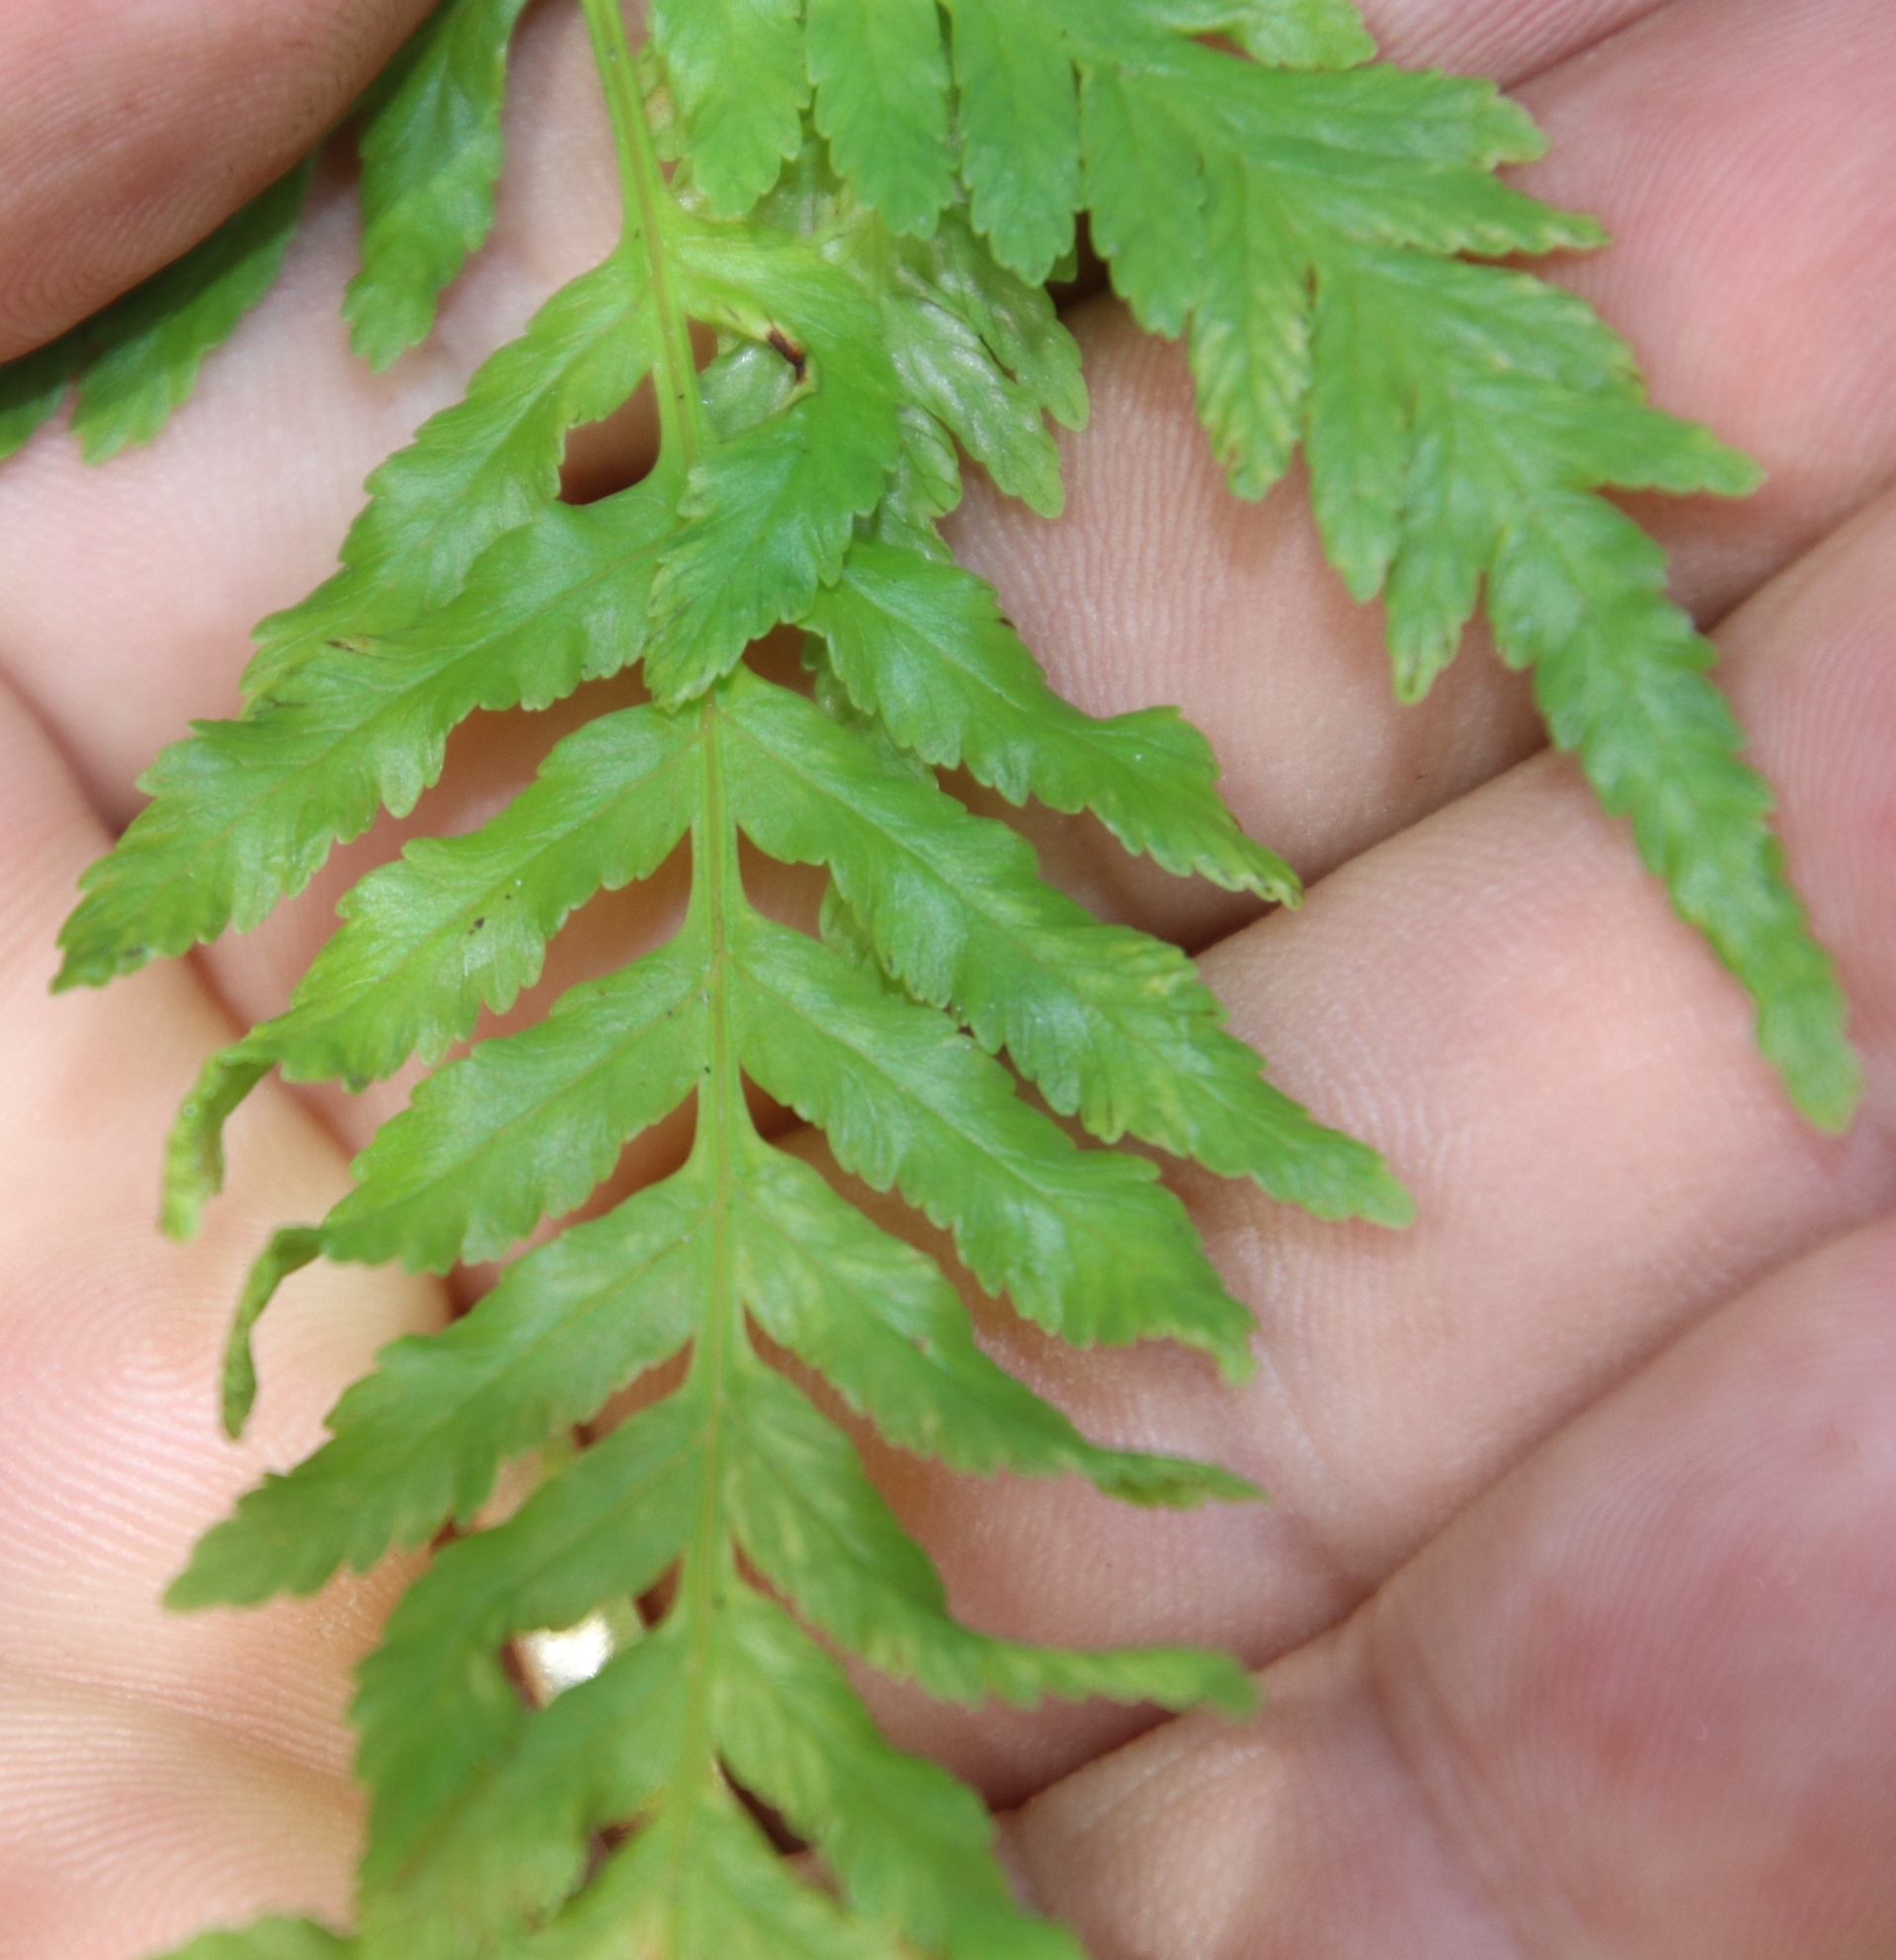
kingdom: Plantae
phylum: Tracheophyta
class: Polypodiopsida
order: Polypodiales
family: Pteridaceae
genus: Pteris
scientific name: Pteris tremula
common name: Australian brake
